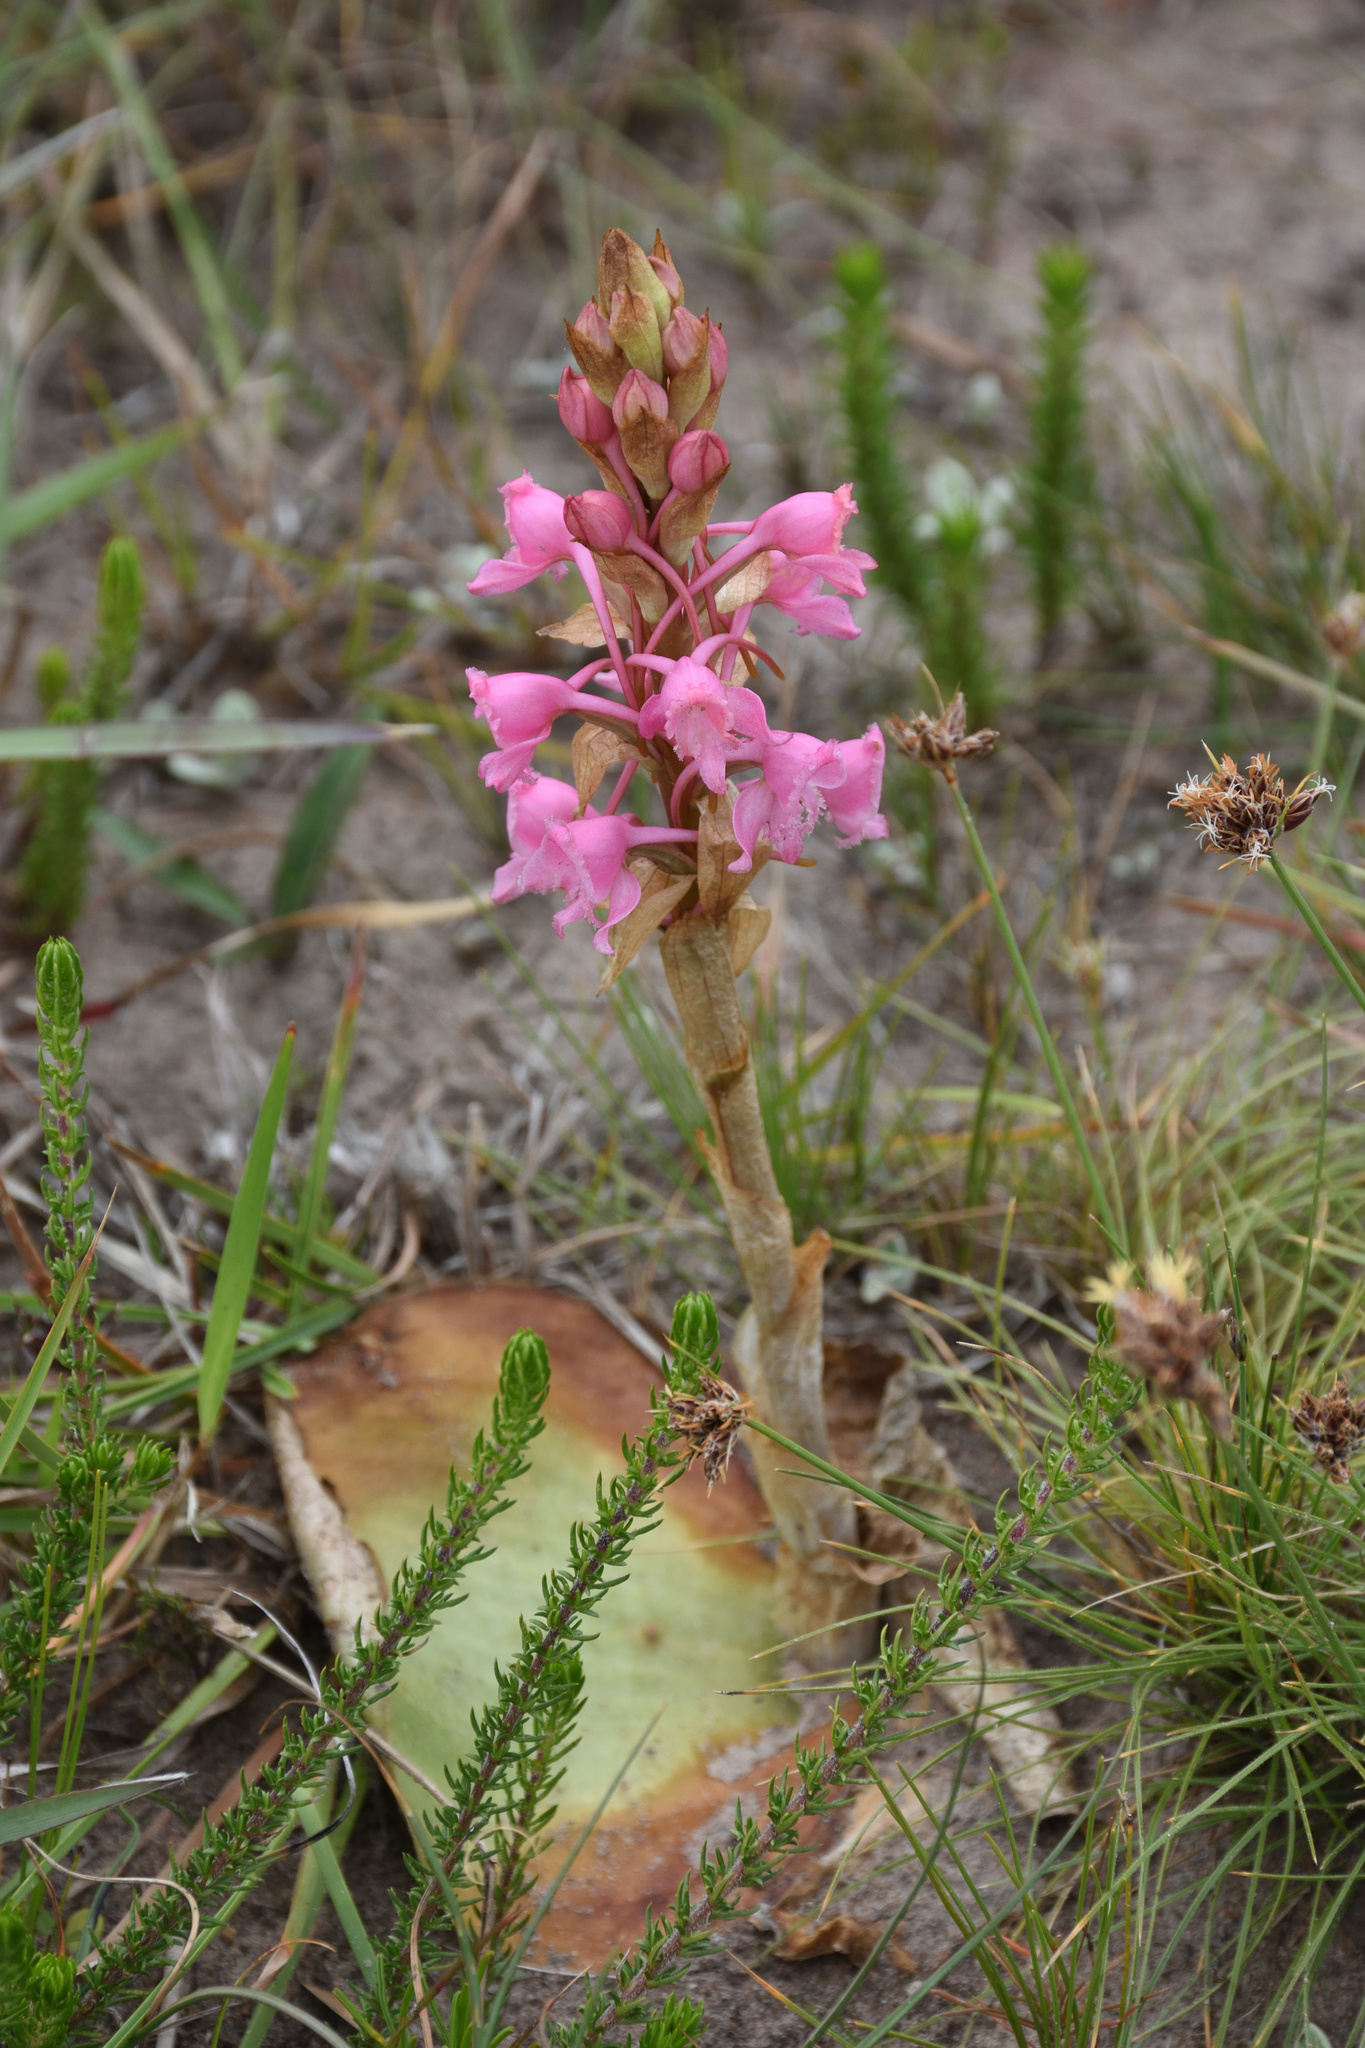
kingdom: Plantae
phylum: Tracheophyta
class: Liliopsida
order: Asparagales
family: Orchidaceae
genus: Satyrium
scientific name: Satyrium membranaceum
